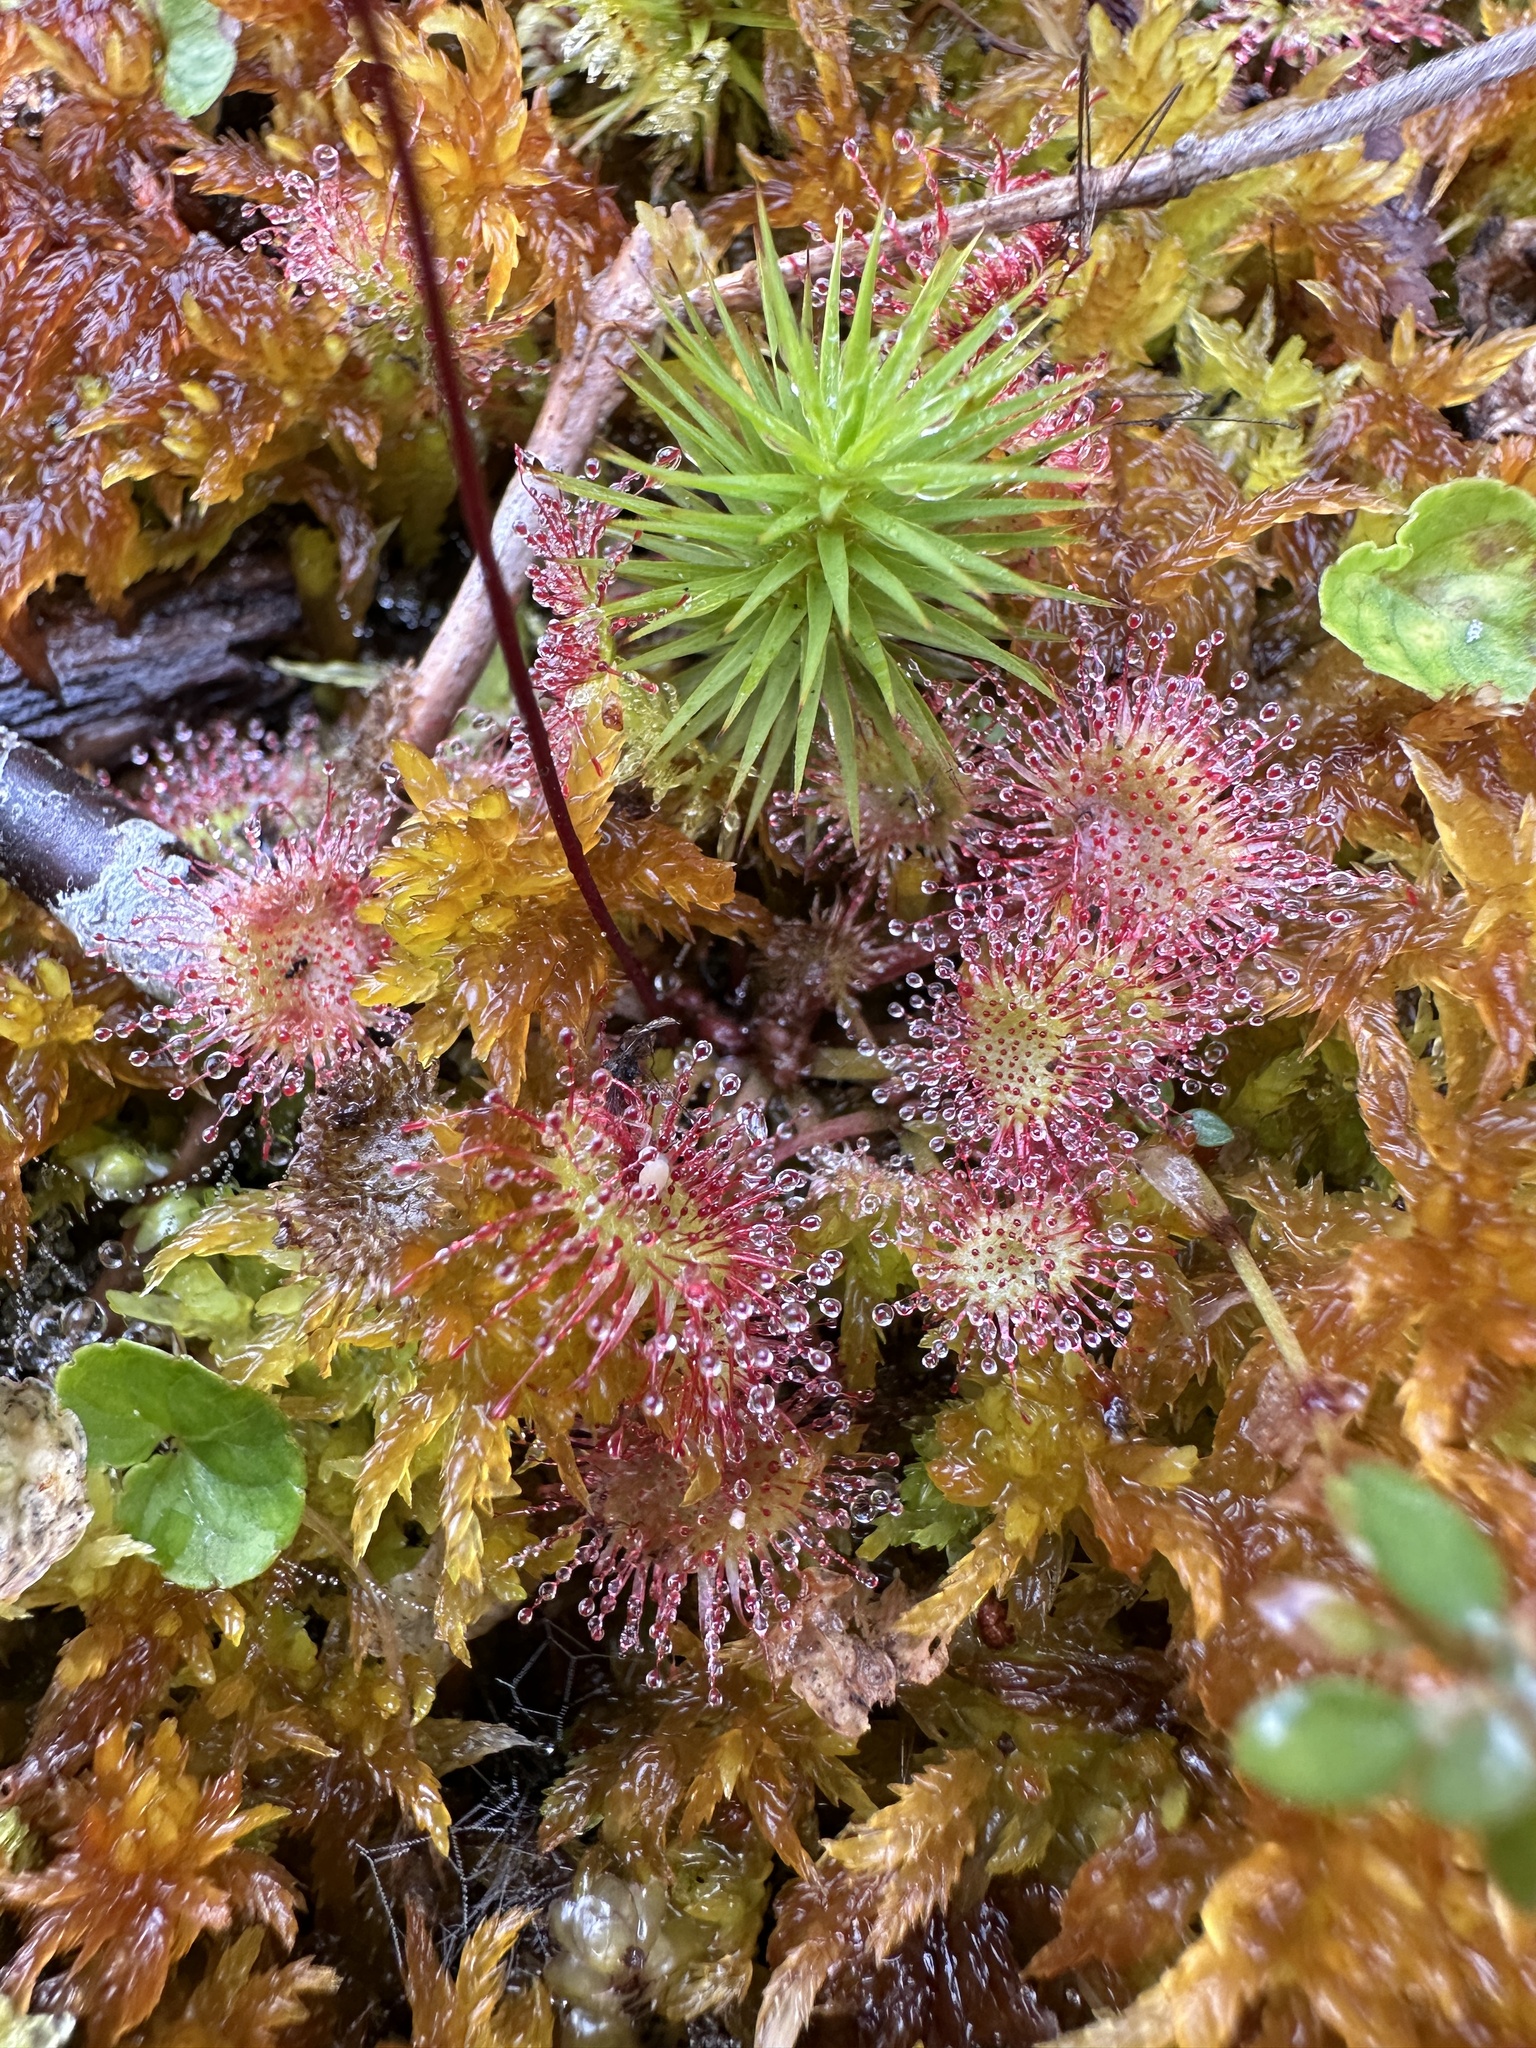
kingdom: Plantae
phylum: Tracheophyta
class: Magnoliopsida
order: Caryophyllales
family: Droseraceae
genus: Drosera
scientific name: Drosera rotundifolia
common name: Round-leaved sundew
